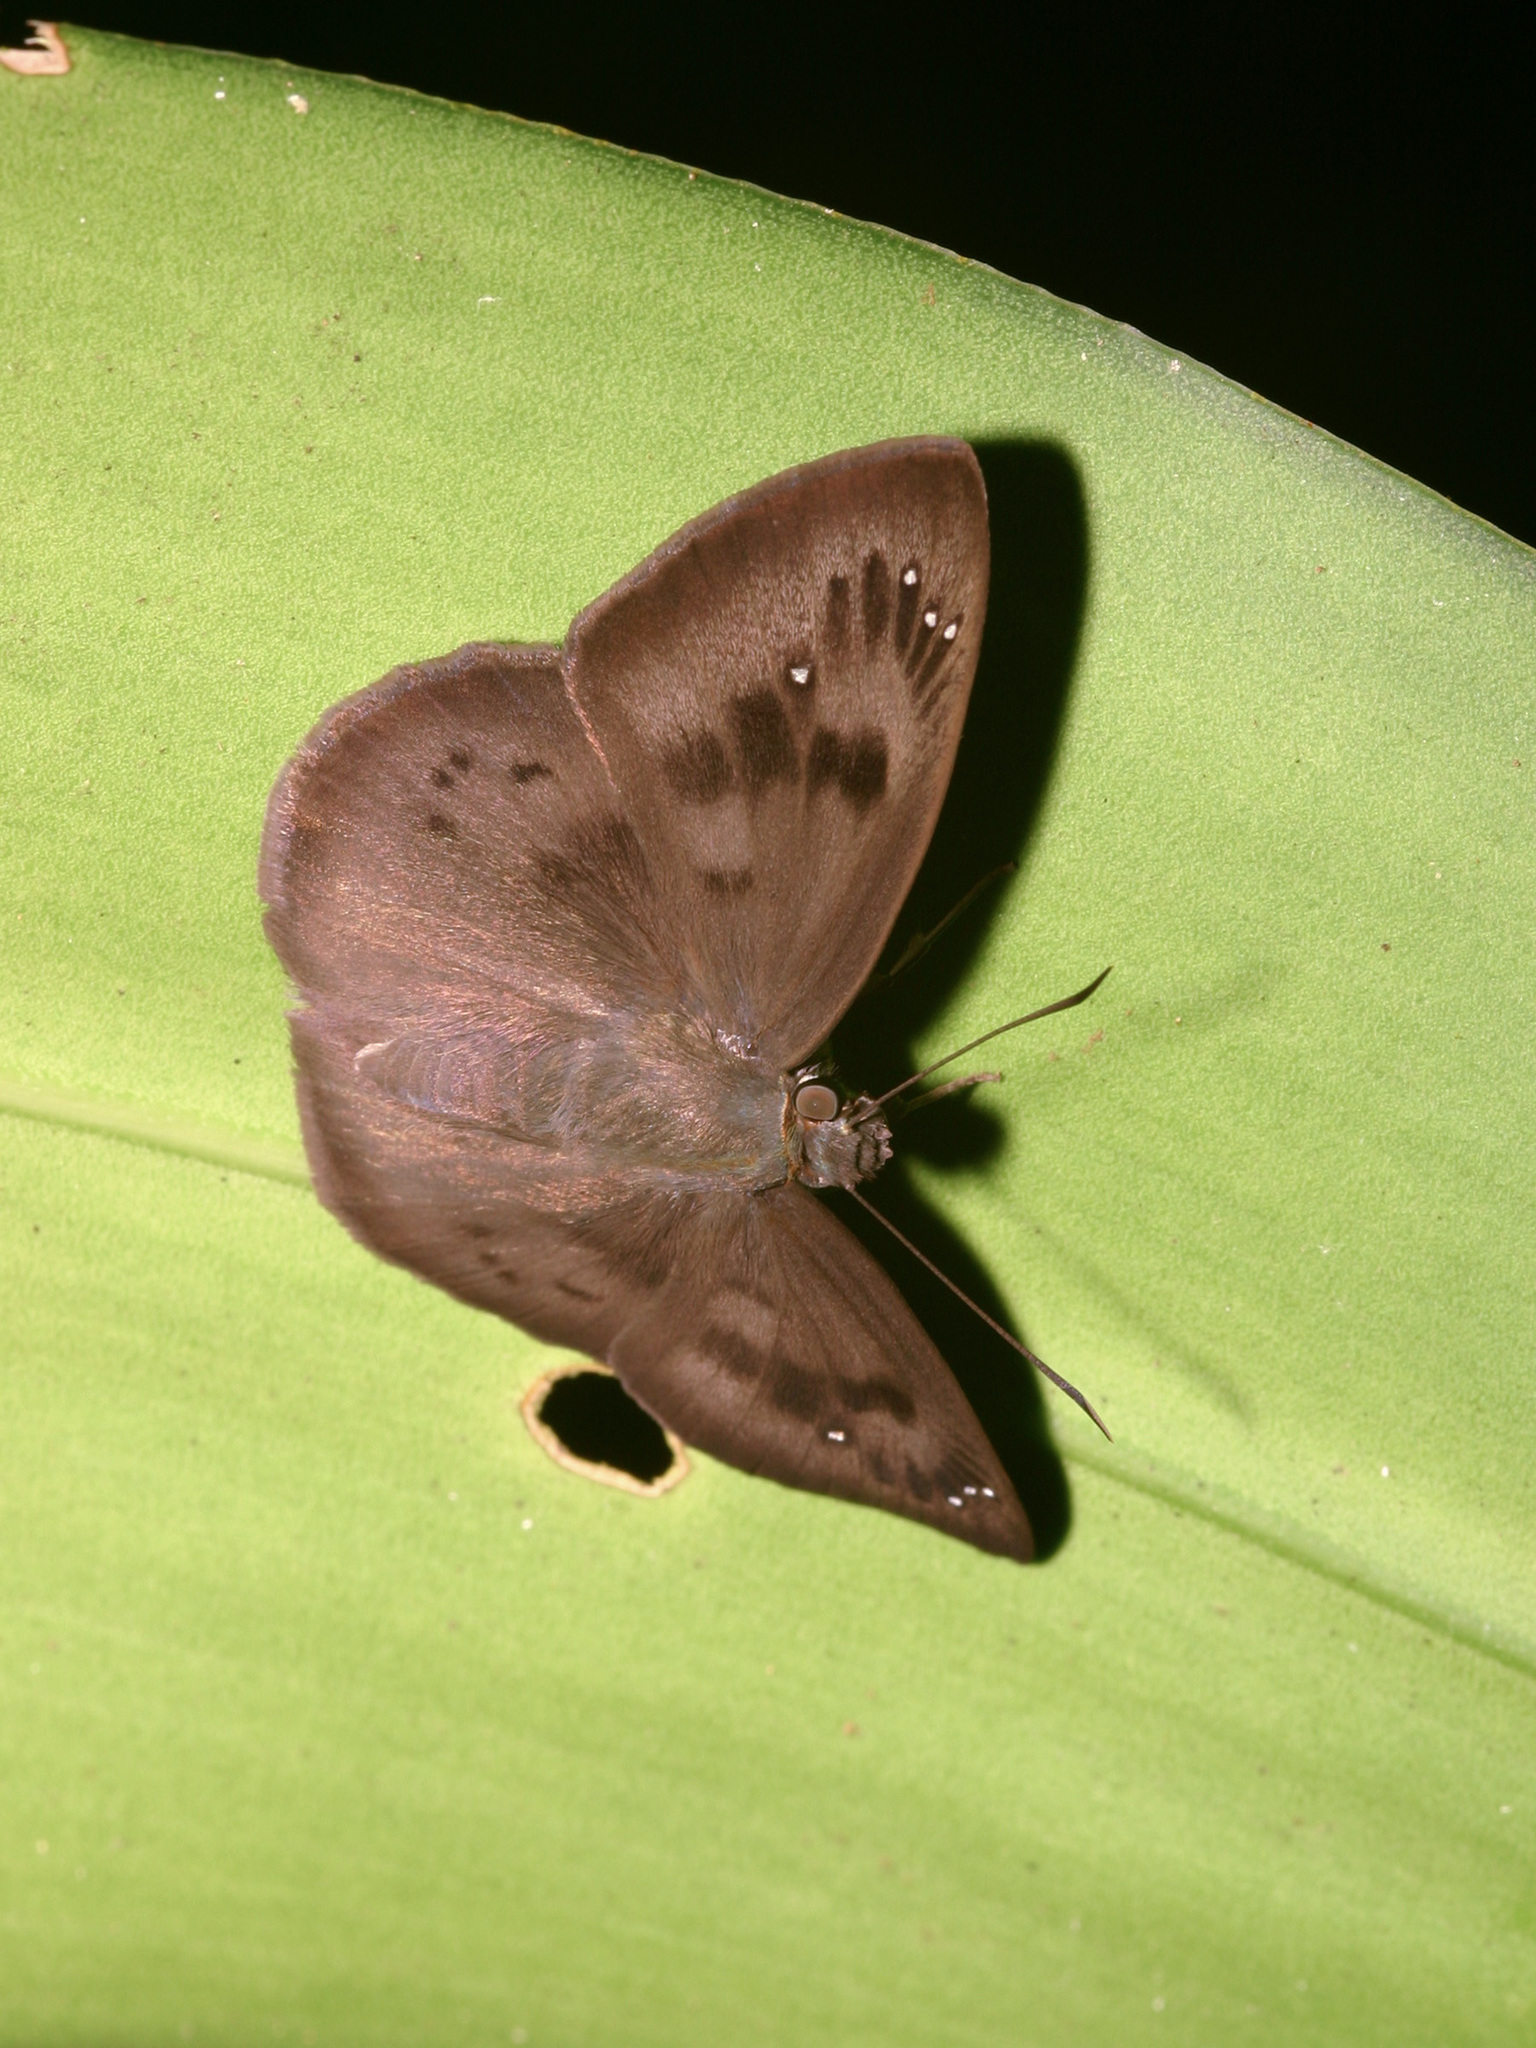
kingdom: Animalia
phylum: Arthropoda
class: Insecta
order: Lepidoptera
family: Hesperiidae
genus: Tagiades
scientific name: Tagiades japetus
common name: Pied flat
